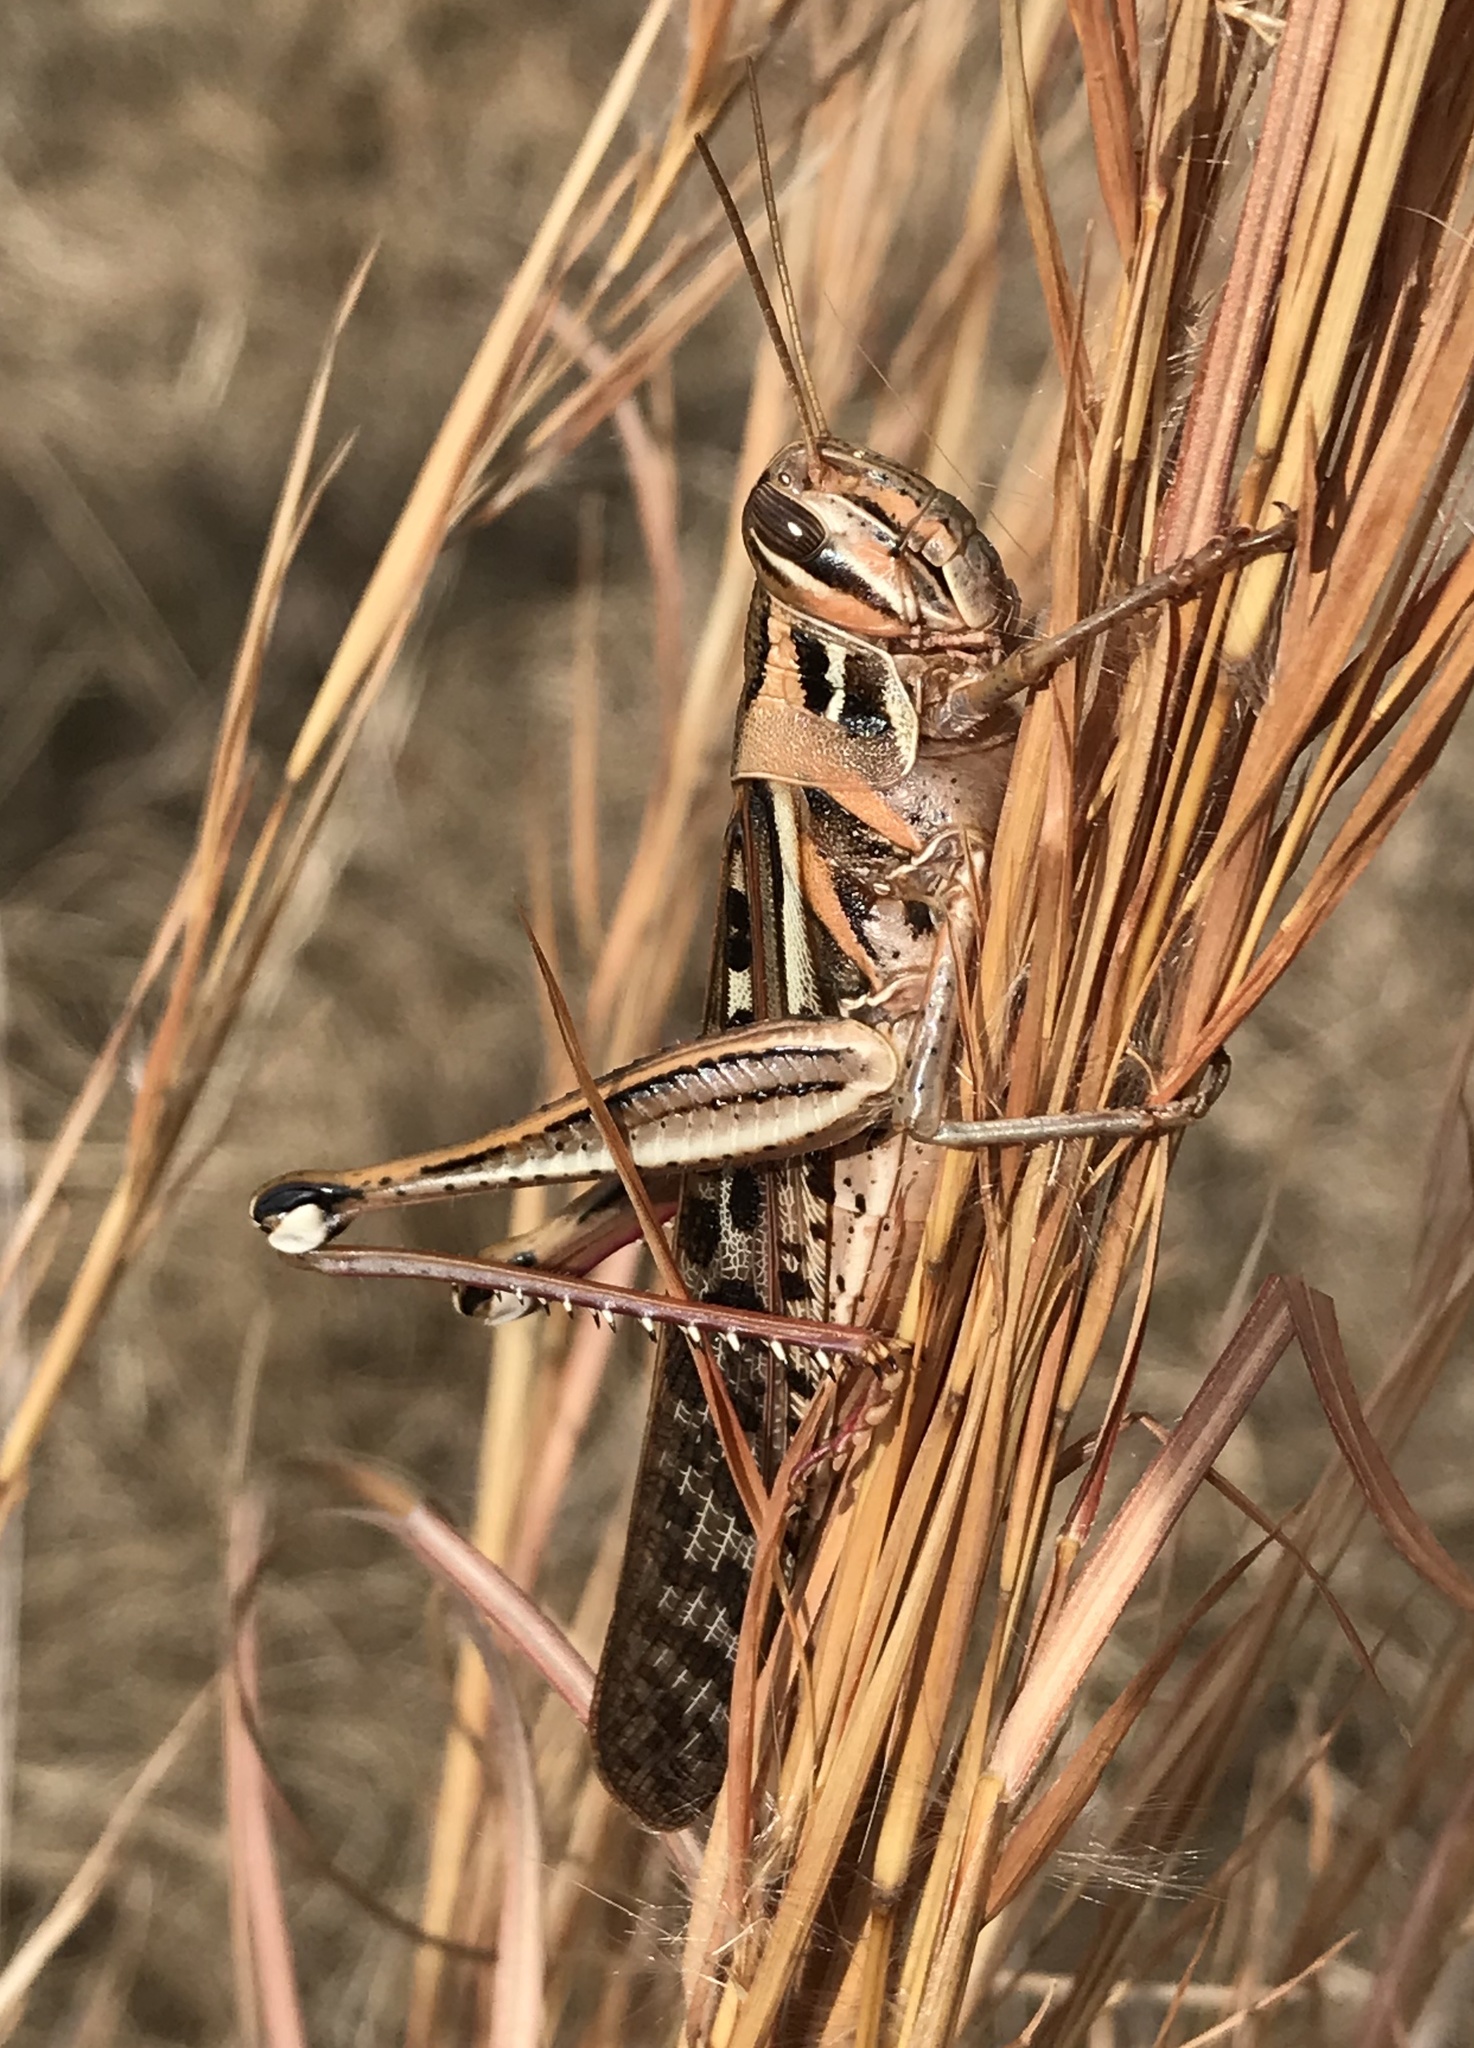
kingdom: Animalia
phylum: Arthropoda
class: Insecta
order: Orthoptera
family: Acrididae
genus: Schistocerca
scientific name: Schistocerca americana
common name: American bird locust
